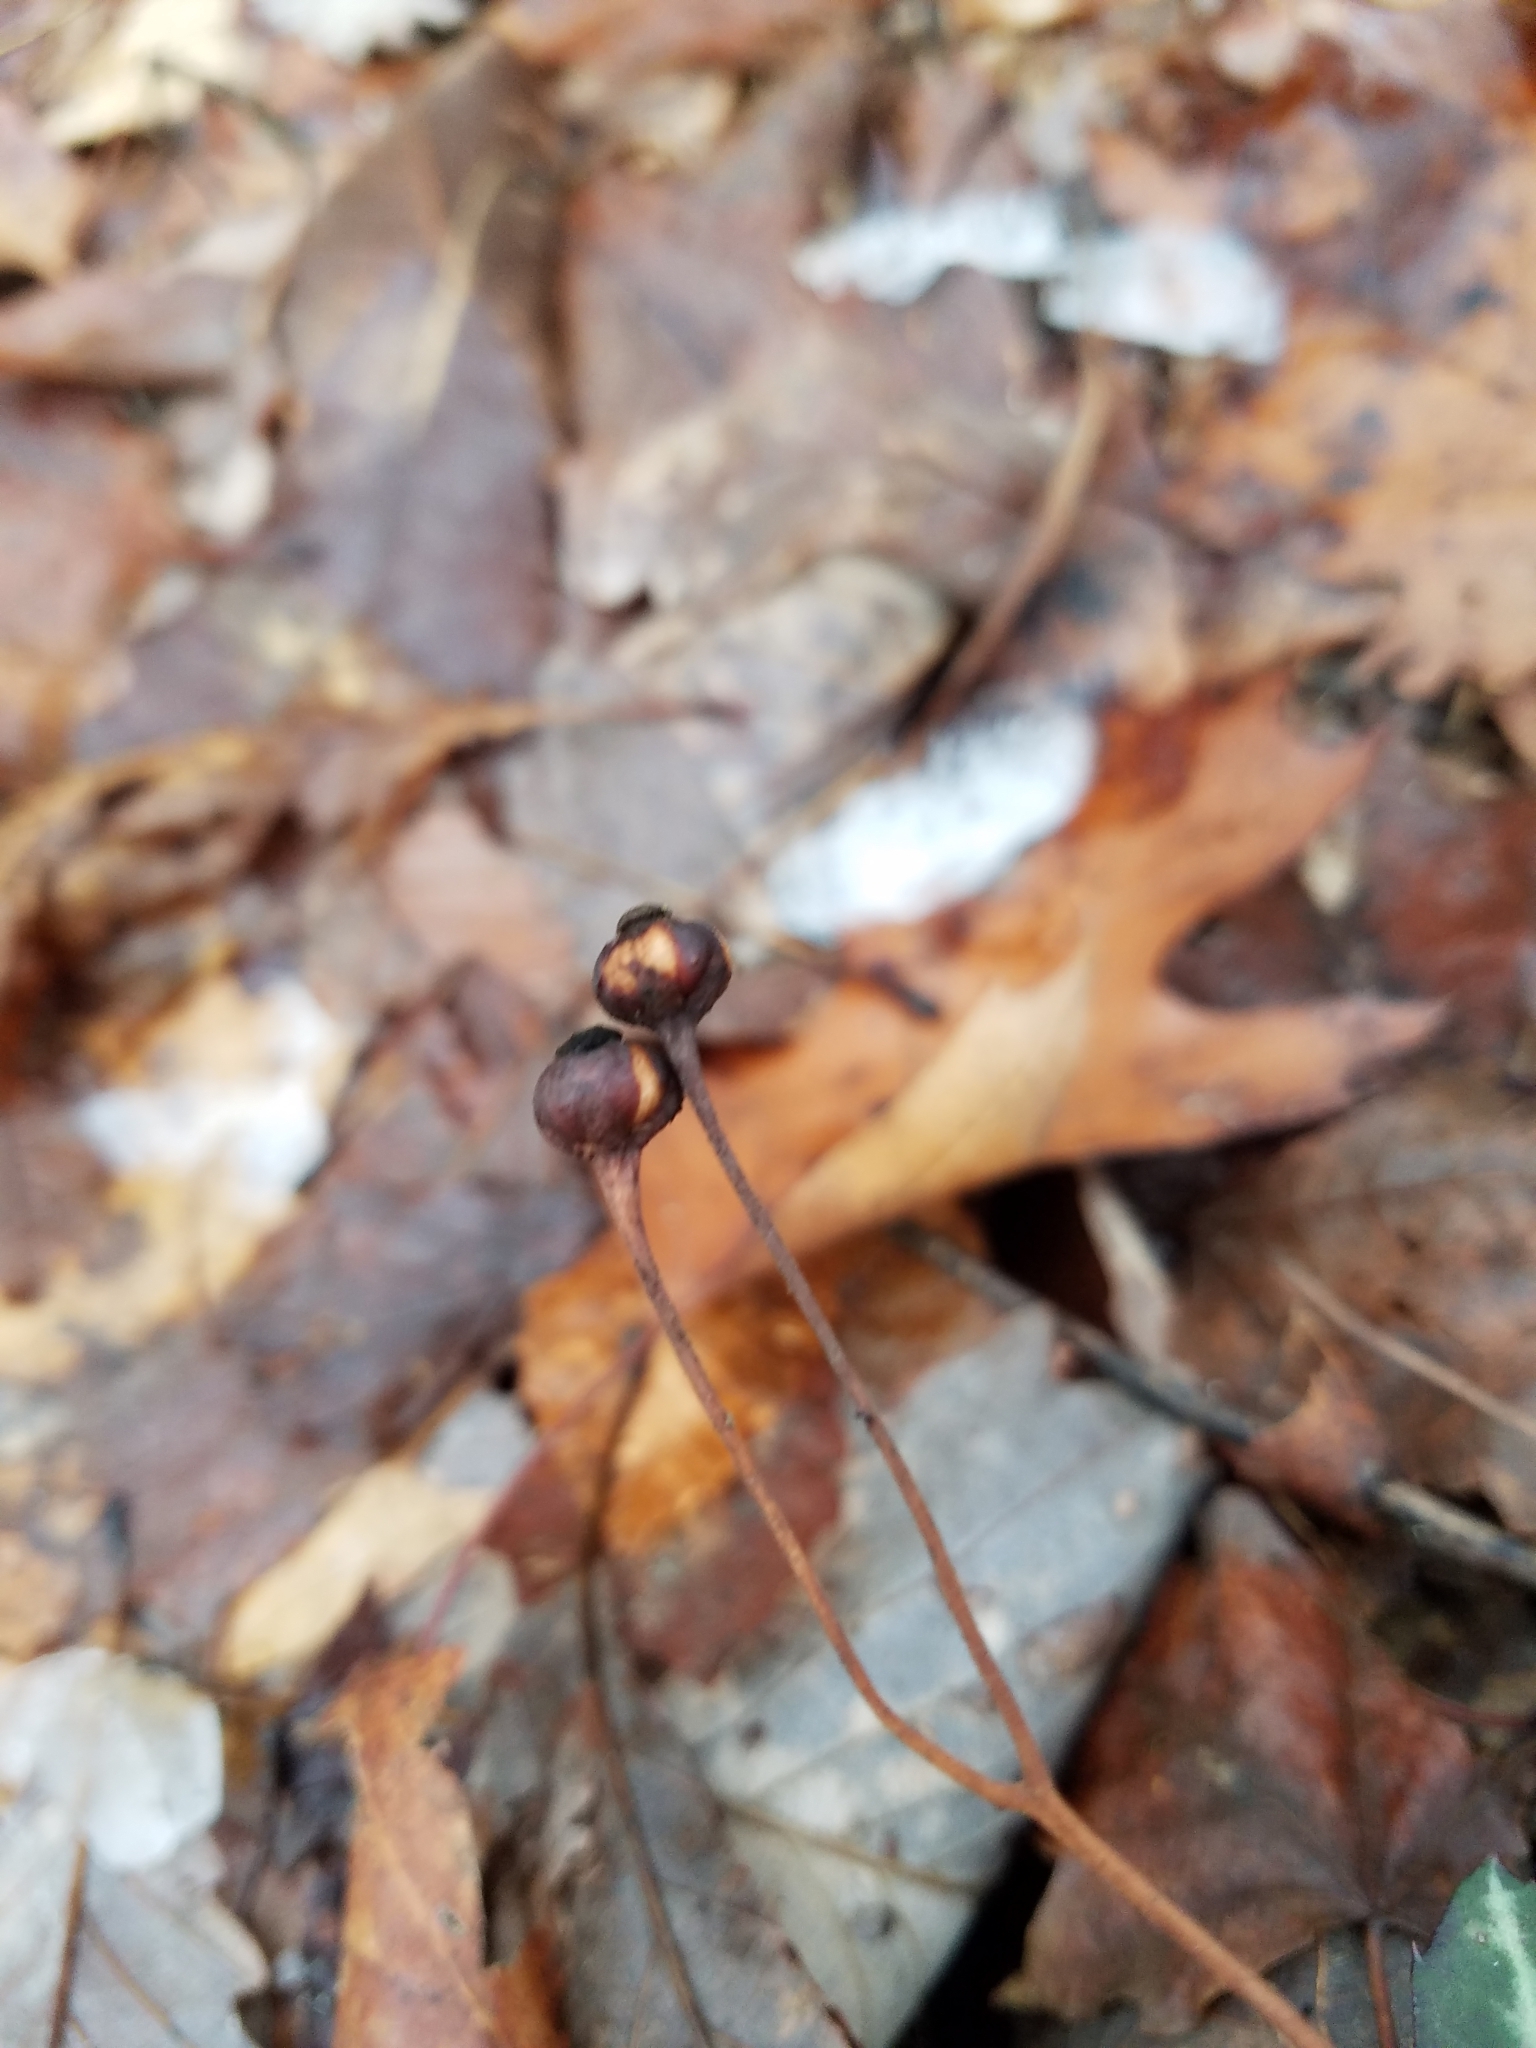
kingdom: Plantae
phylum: Tracheophyta
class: Magnoliopsida
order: Ericales
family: Ericaceae
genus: Chimaphila
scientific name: Chimaphila maculata
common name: Spotted pipsissewa
